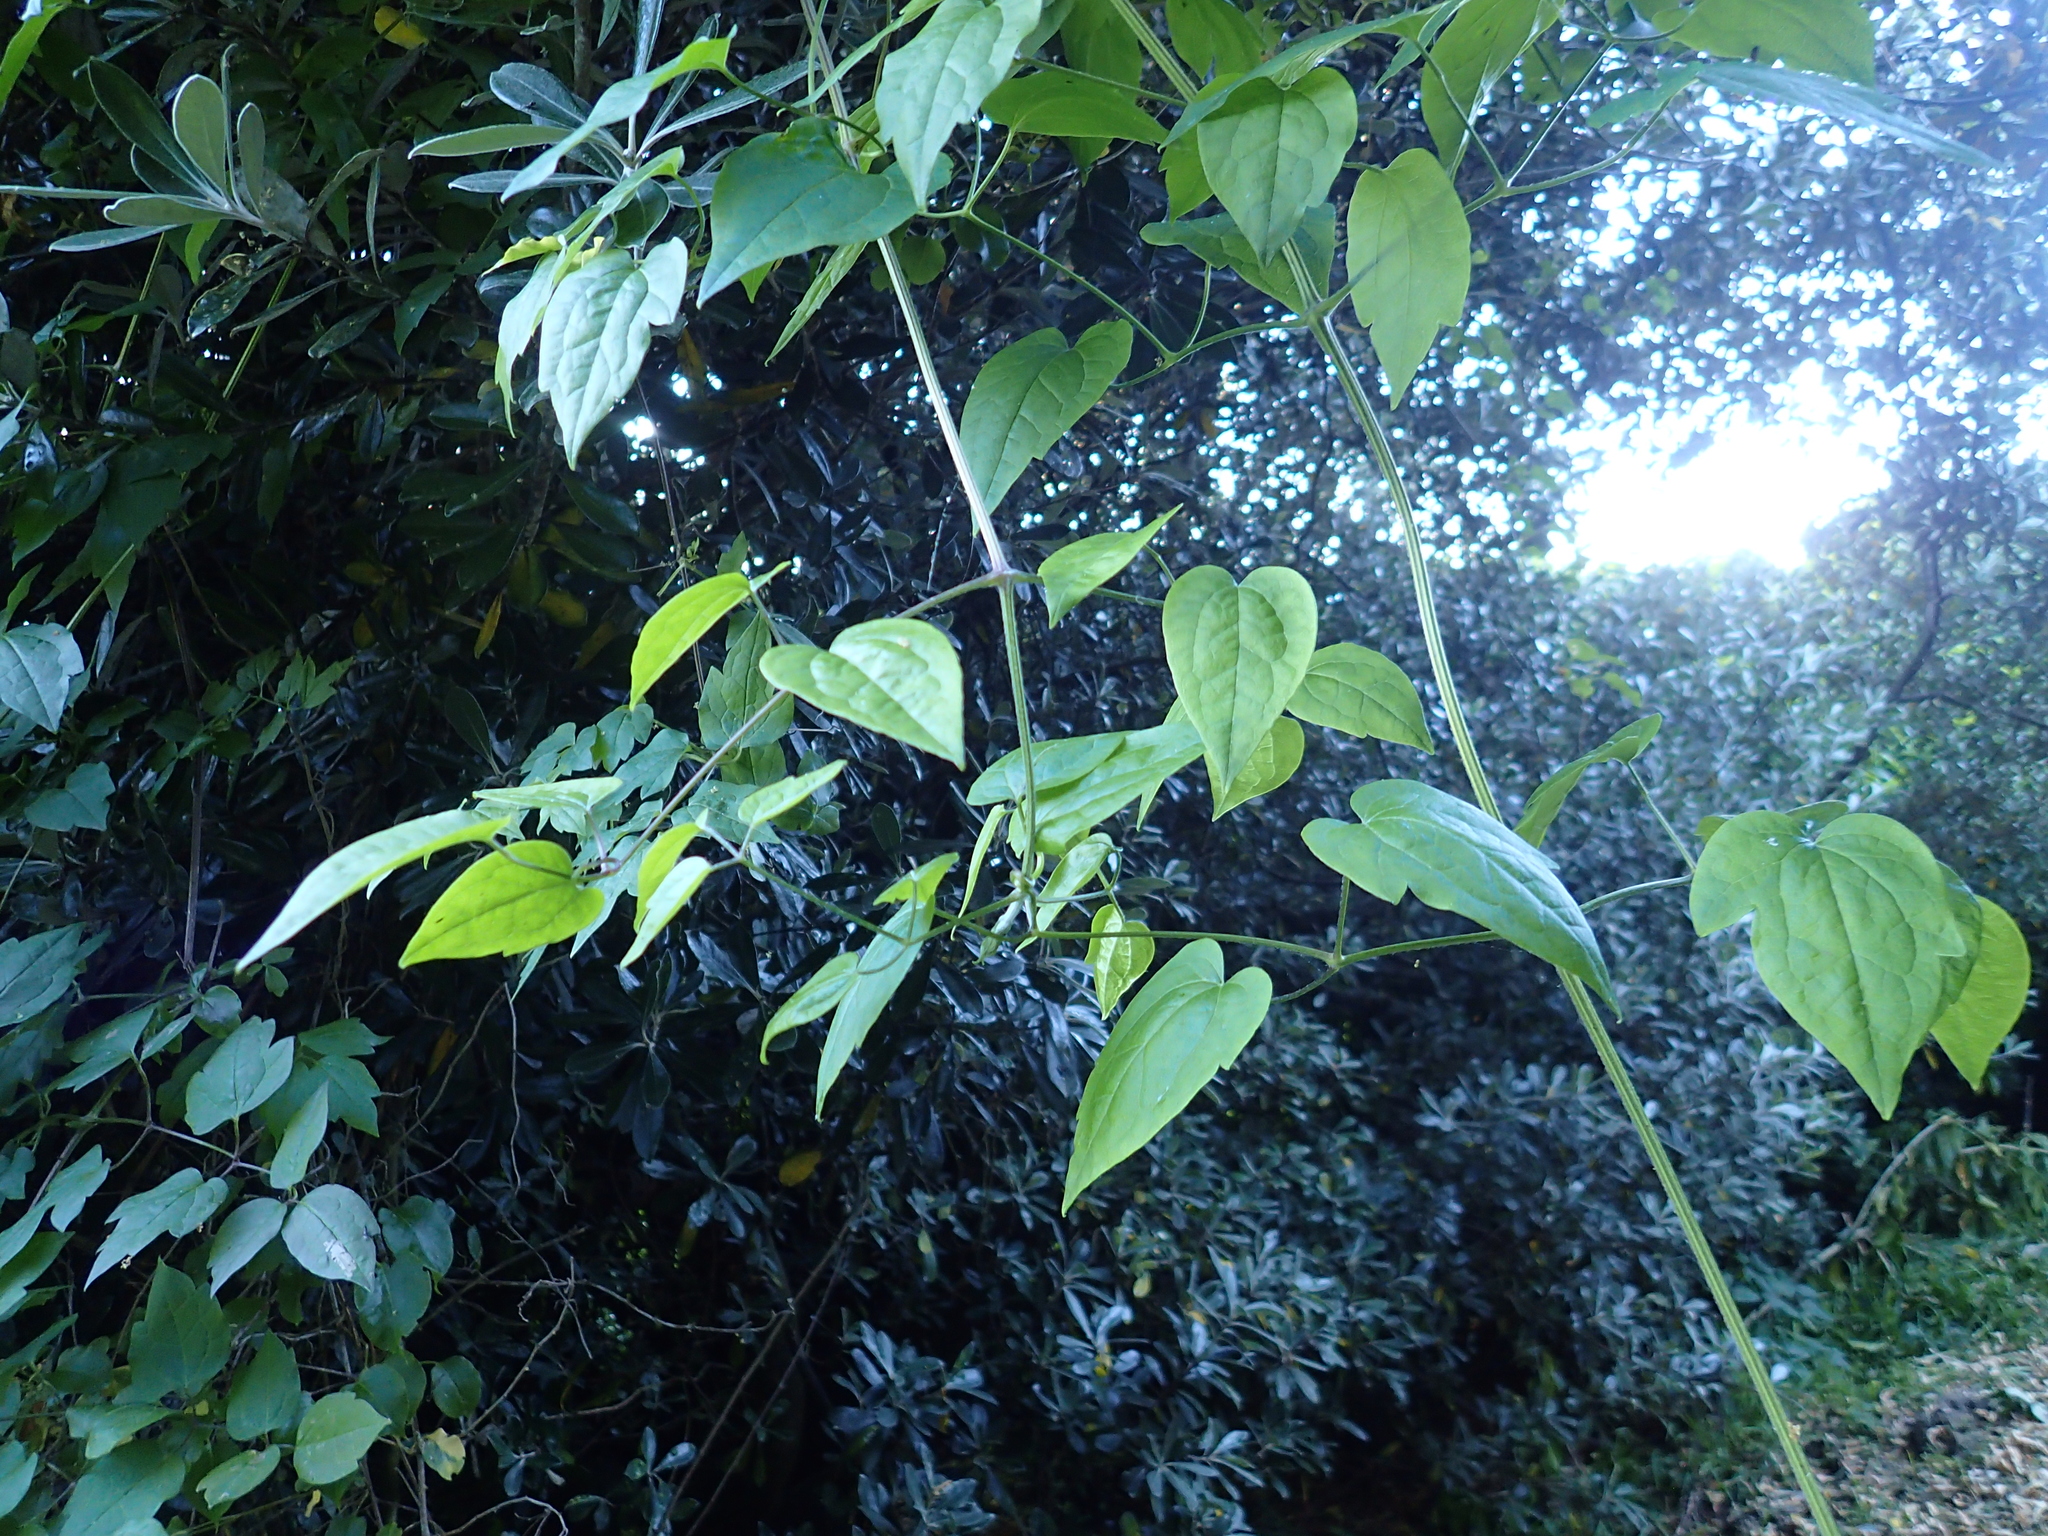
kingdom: Plantae
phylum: Tracheophyta
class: Magnoliopsida
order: Ranunculales
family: Ranunculaceae
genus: Clematis
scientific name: Clematis vitalba
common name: Evergreen clematis
